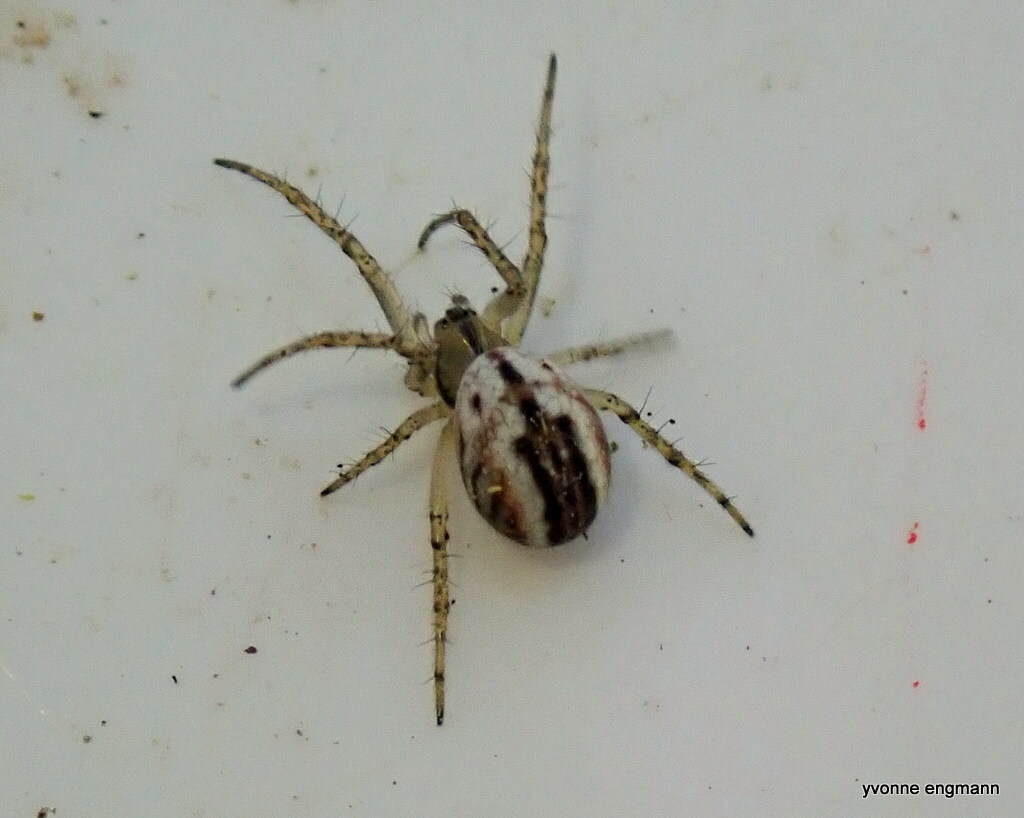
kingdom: Animalia
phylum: Arthropoda
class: Arachnida
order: Araneae
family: Araneidae
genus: Mangora
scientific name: Mangora acalypha
